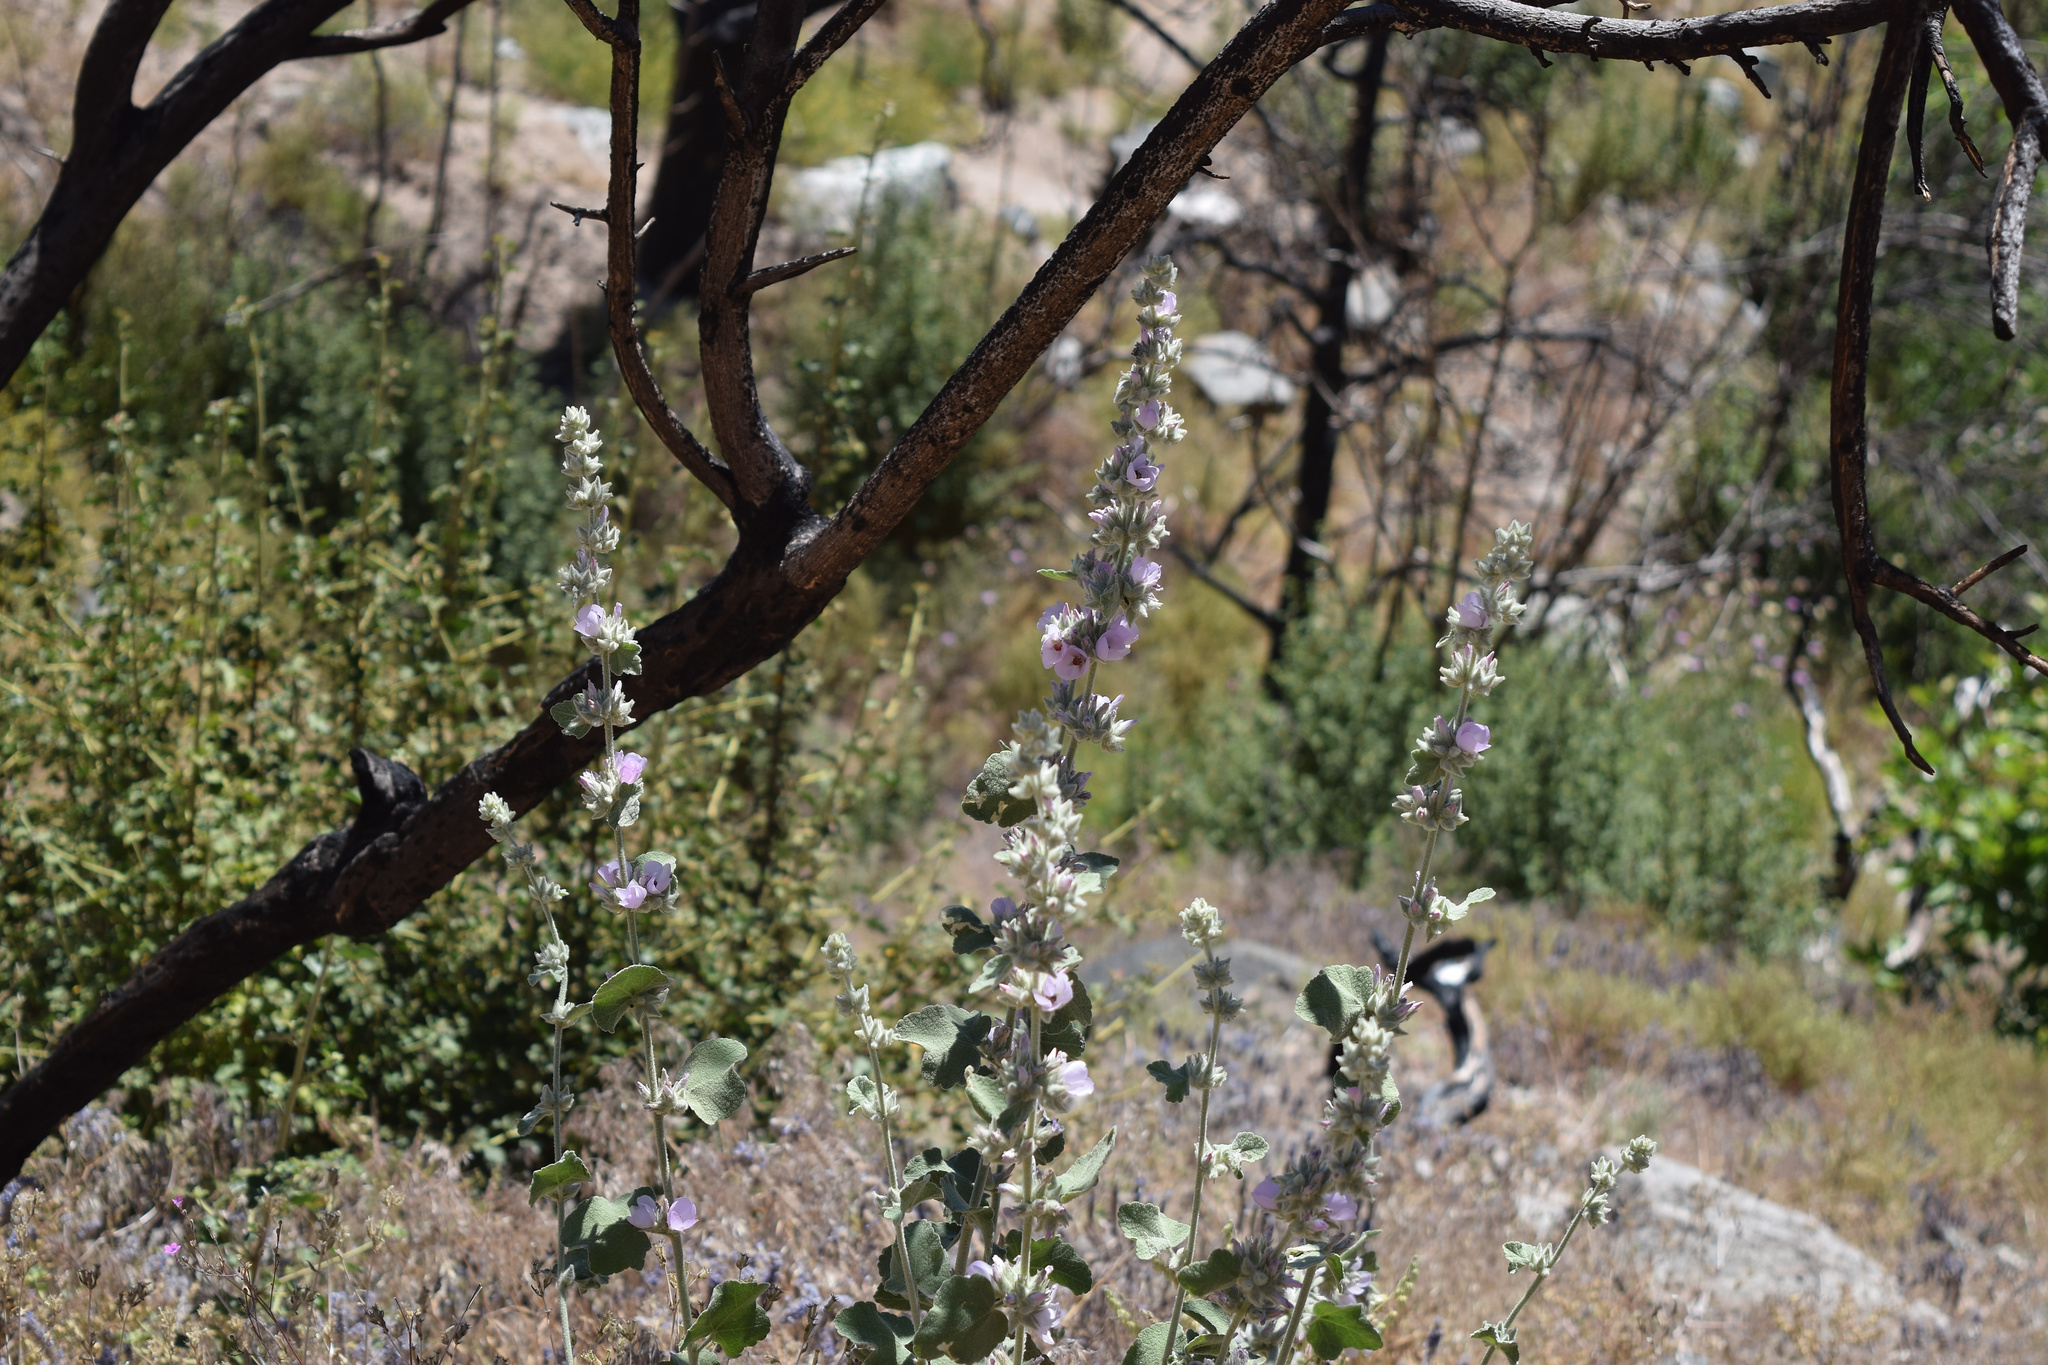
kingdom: Plantae
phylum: Tracheophyta
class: Magnoliopsida
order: Malvales
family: Malvaceae
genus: Malacothamnus
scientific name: Malacothamnus fremontii
